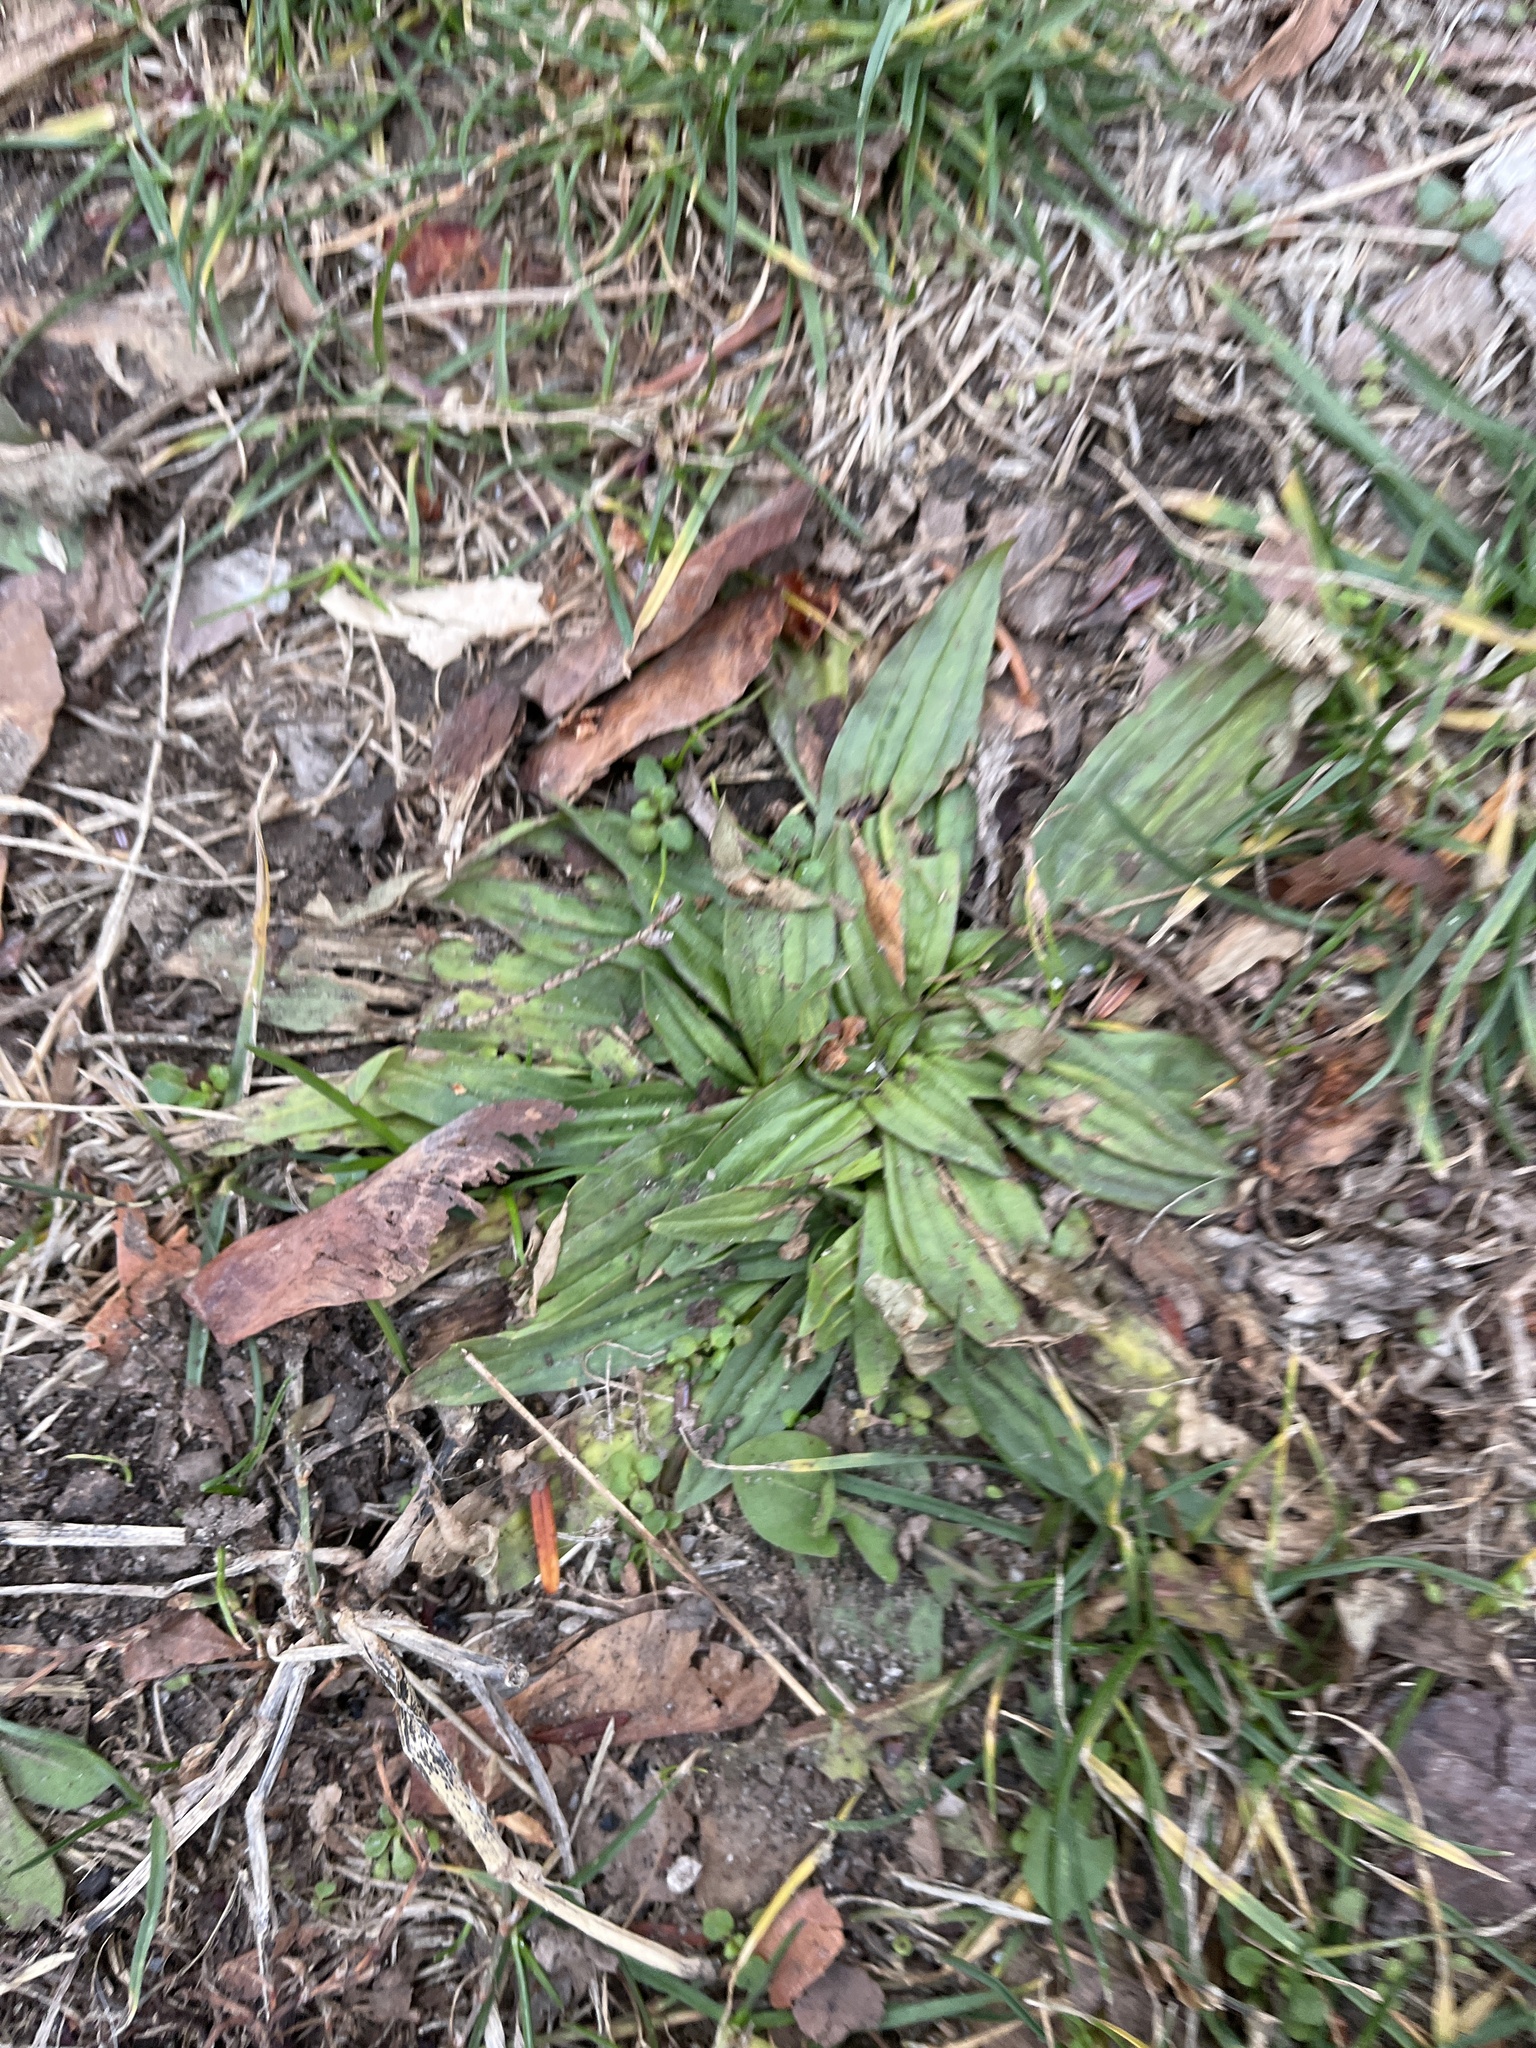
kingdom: Plantae
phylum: Tracheophyta
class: Magnoliopsida
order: Lamiales
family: Plantaginaceae
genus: Plantago
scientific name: Plantago lanceolata
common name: Ribwort plantain
